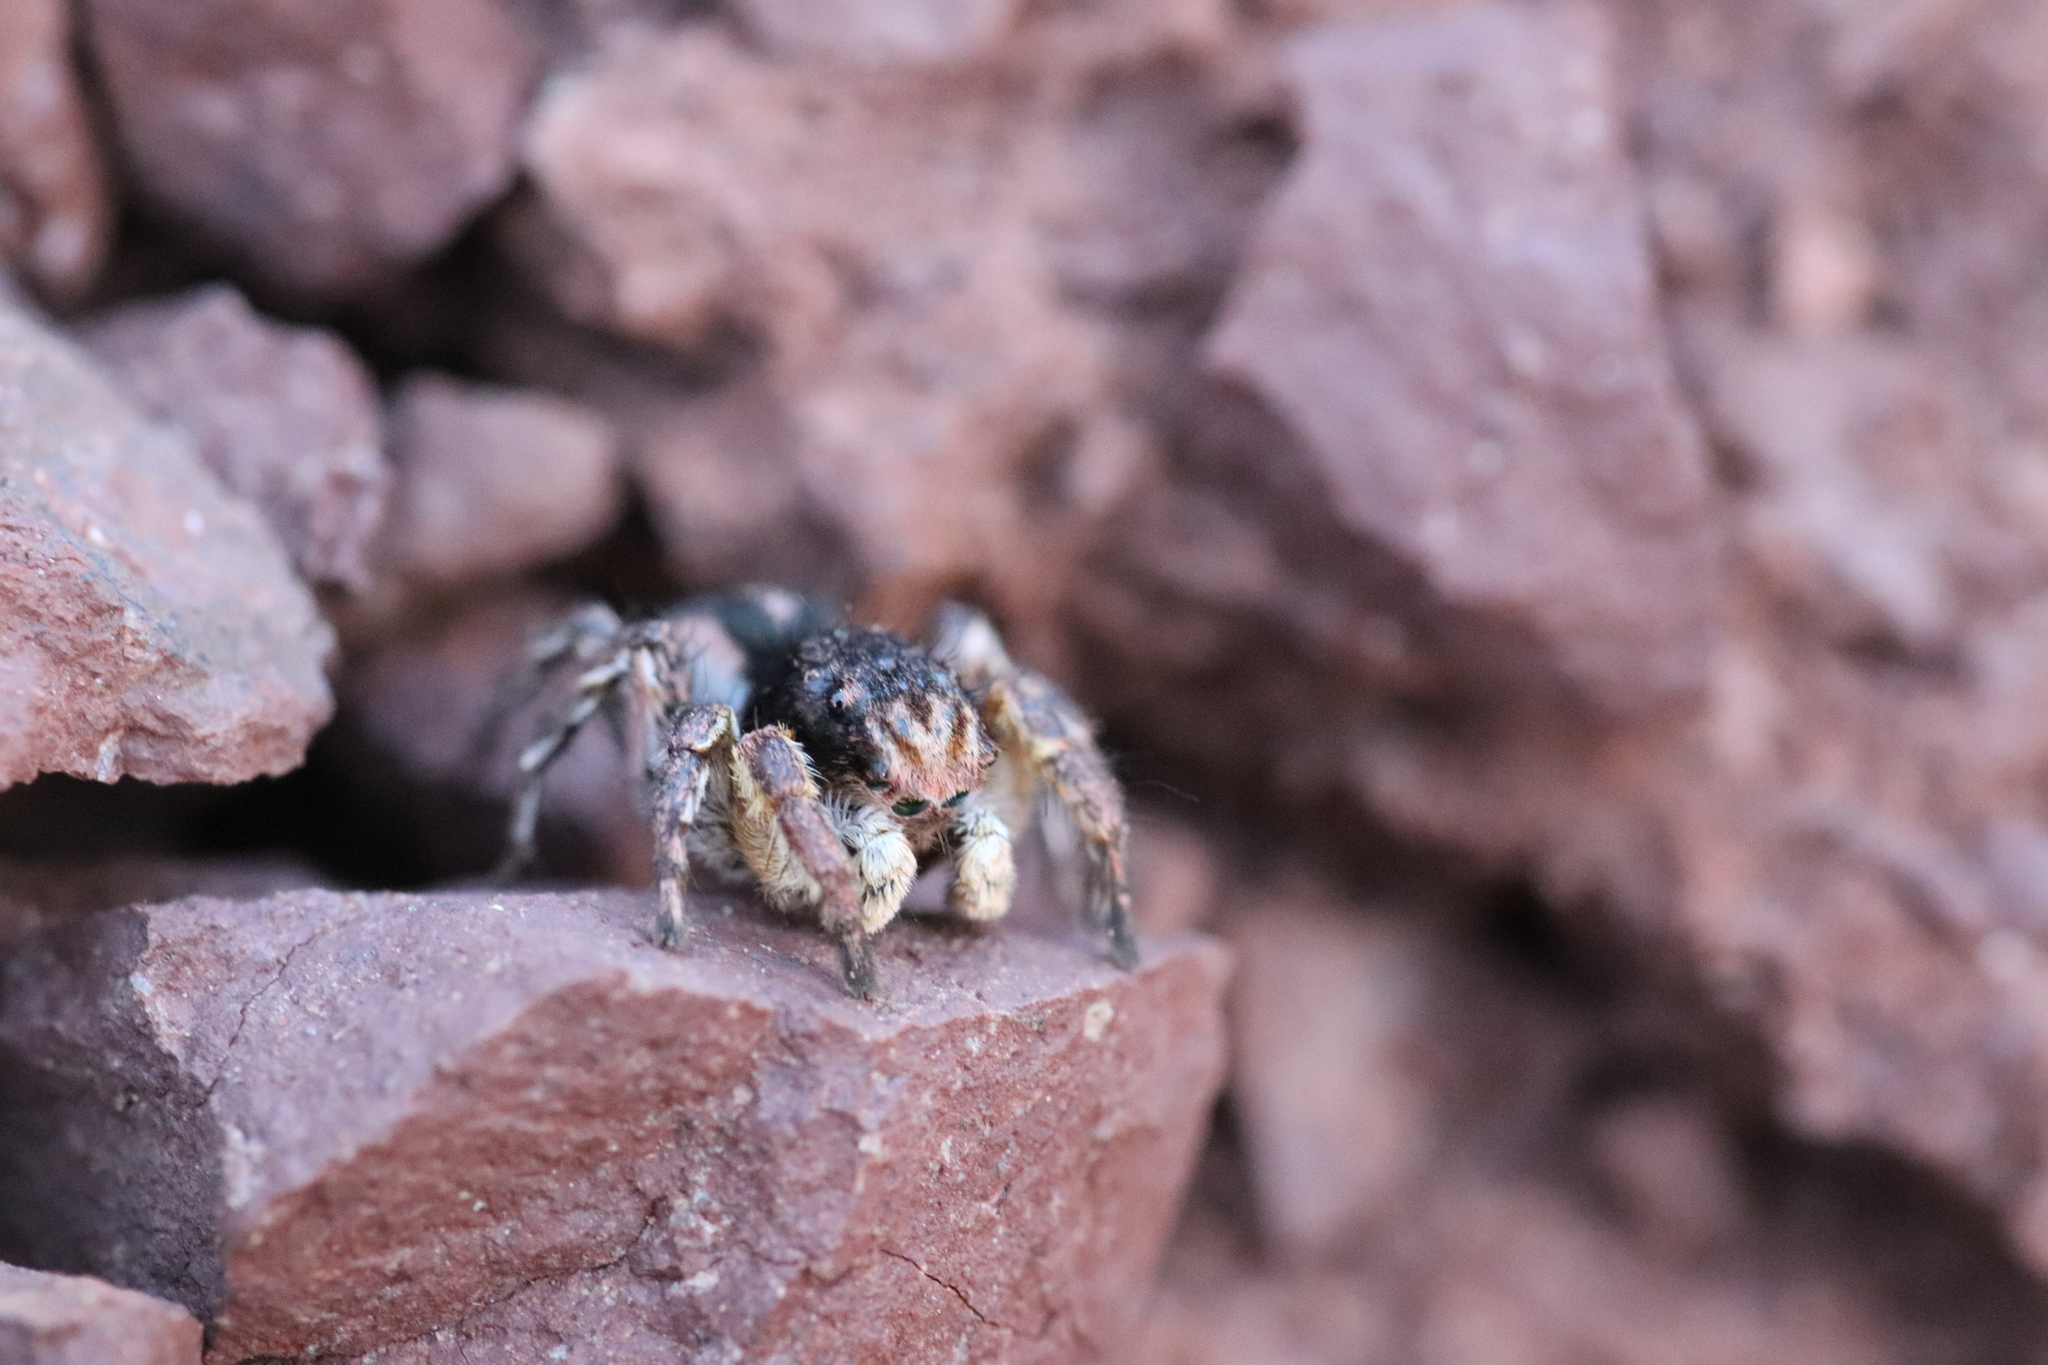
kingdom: Animalia
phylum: Arthropoda
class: Arachnida
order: Araneae
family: Salticidae
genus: Aelurillus
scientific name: Aelurillus v-insignitus
